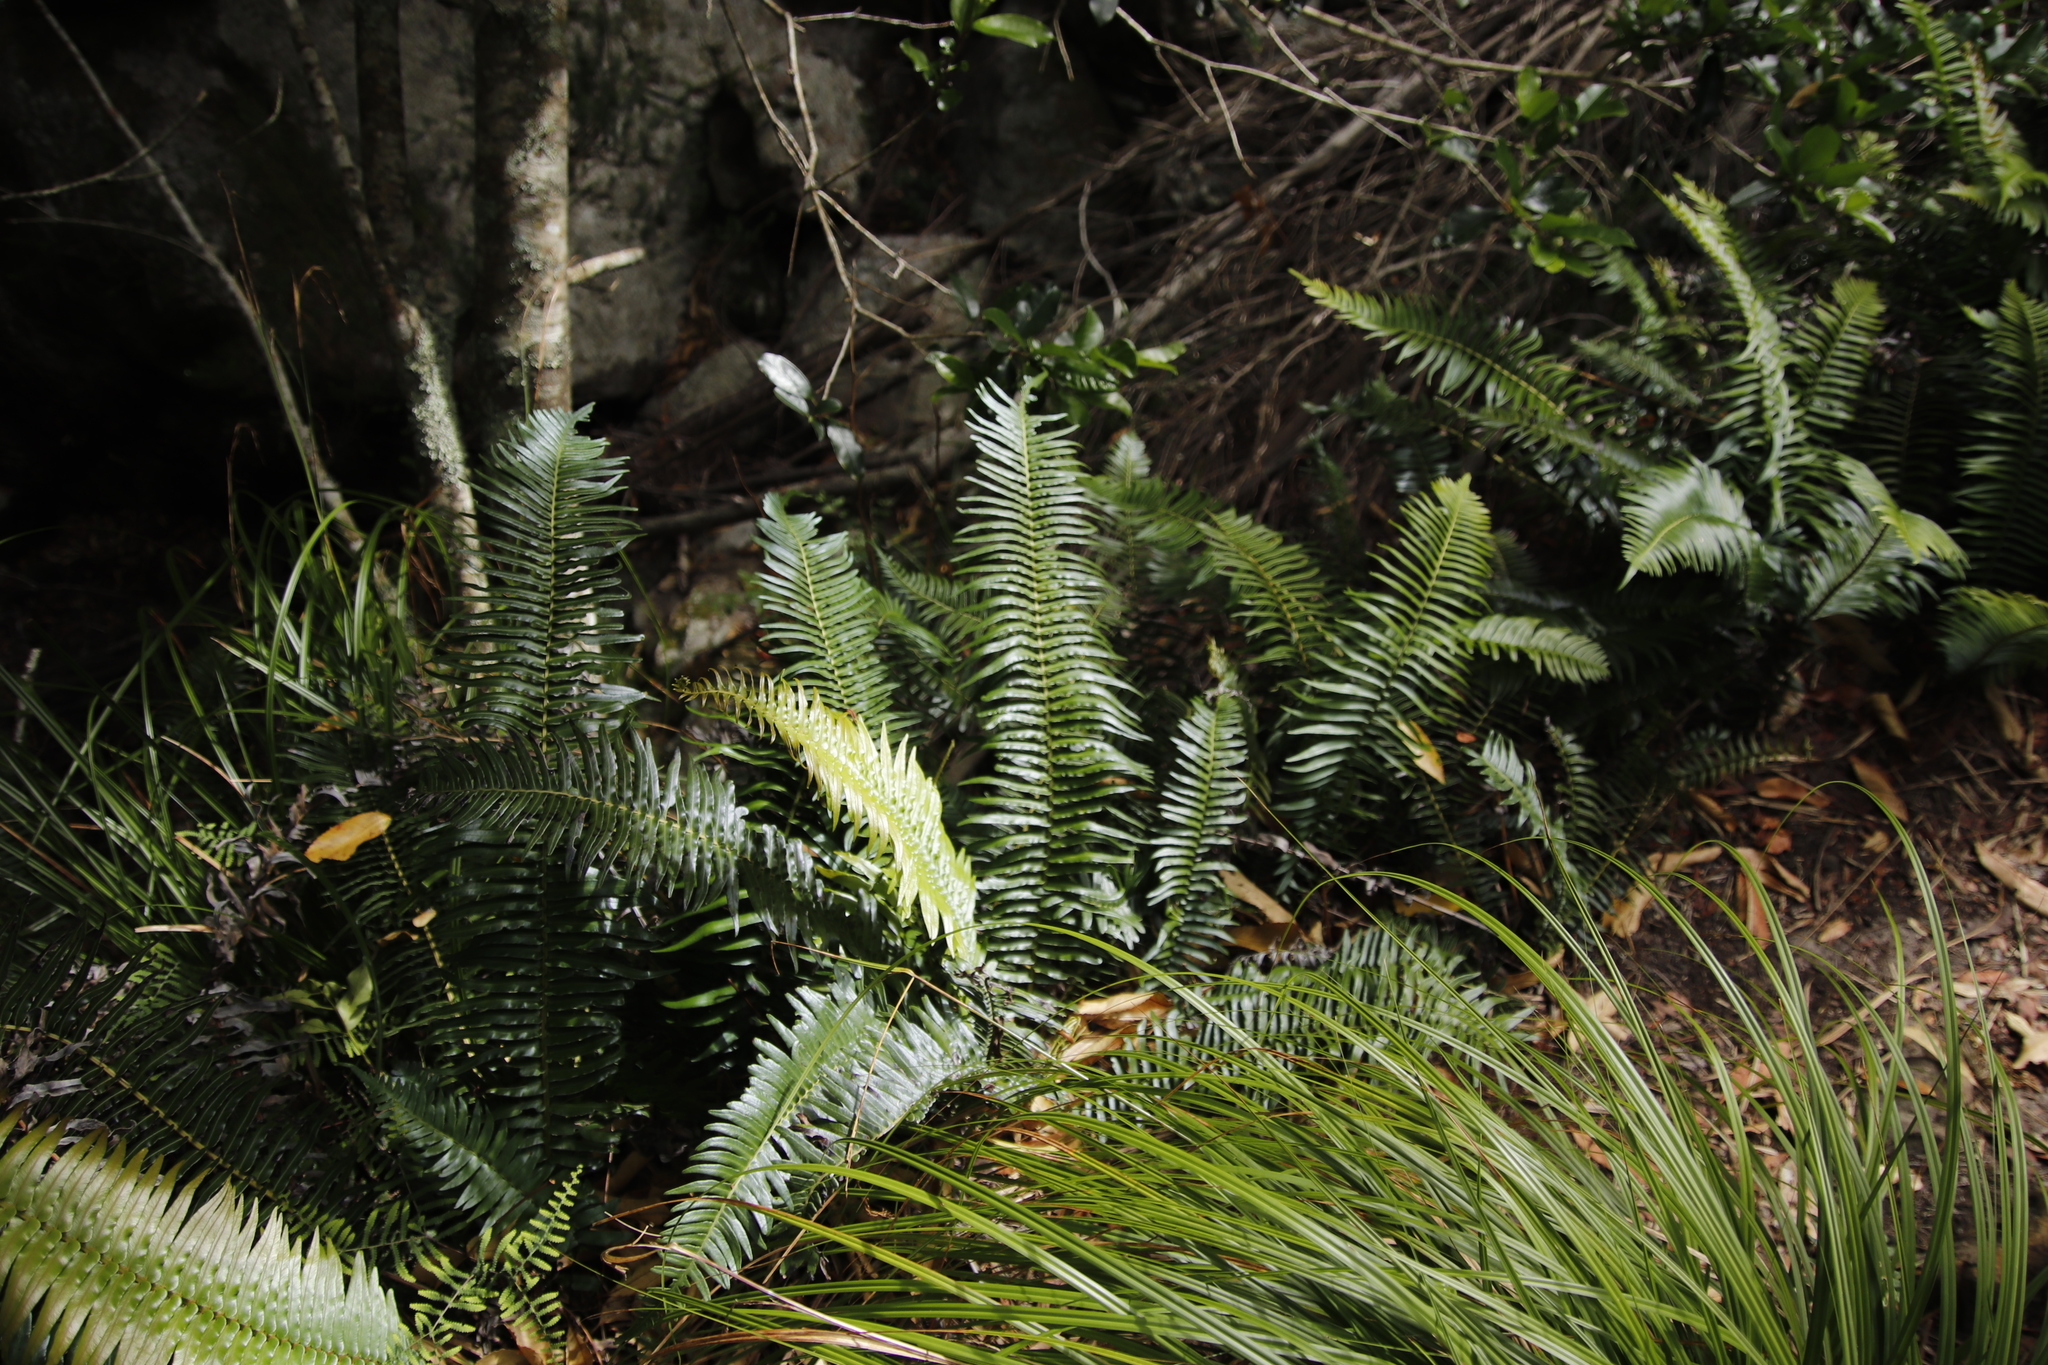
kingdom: Plantae
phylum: Tracheophyta
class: Polypodiopsida
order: Polypodiales
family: Blechnaceae
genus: Blechnum
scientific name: Blechnum punctulatum
